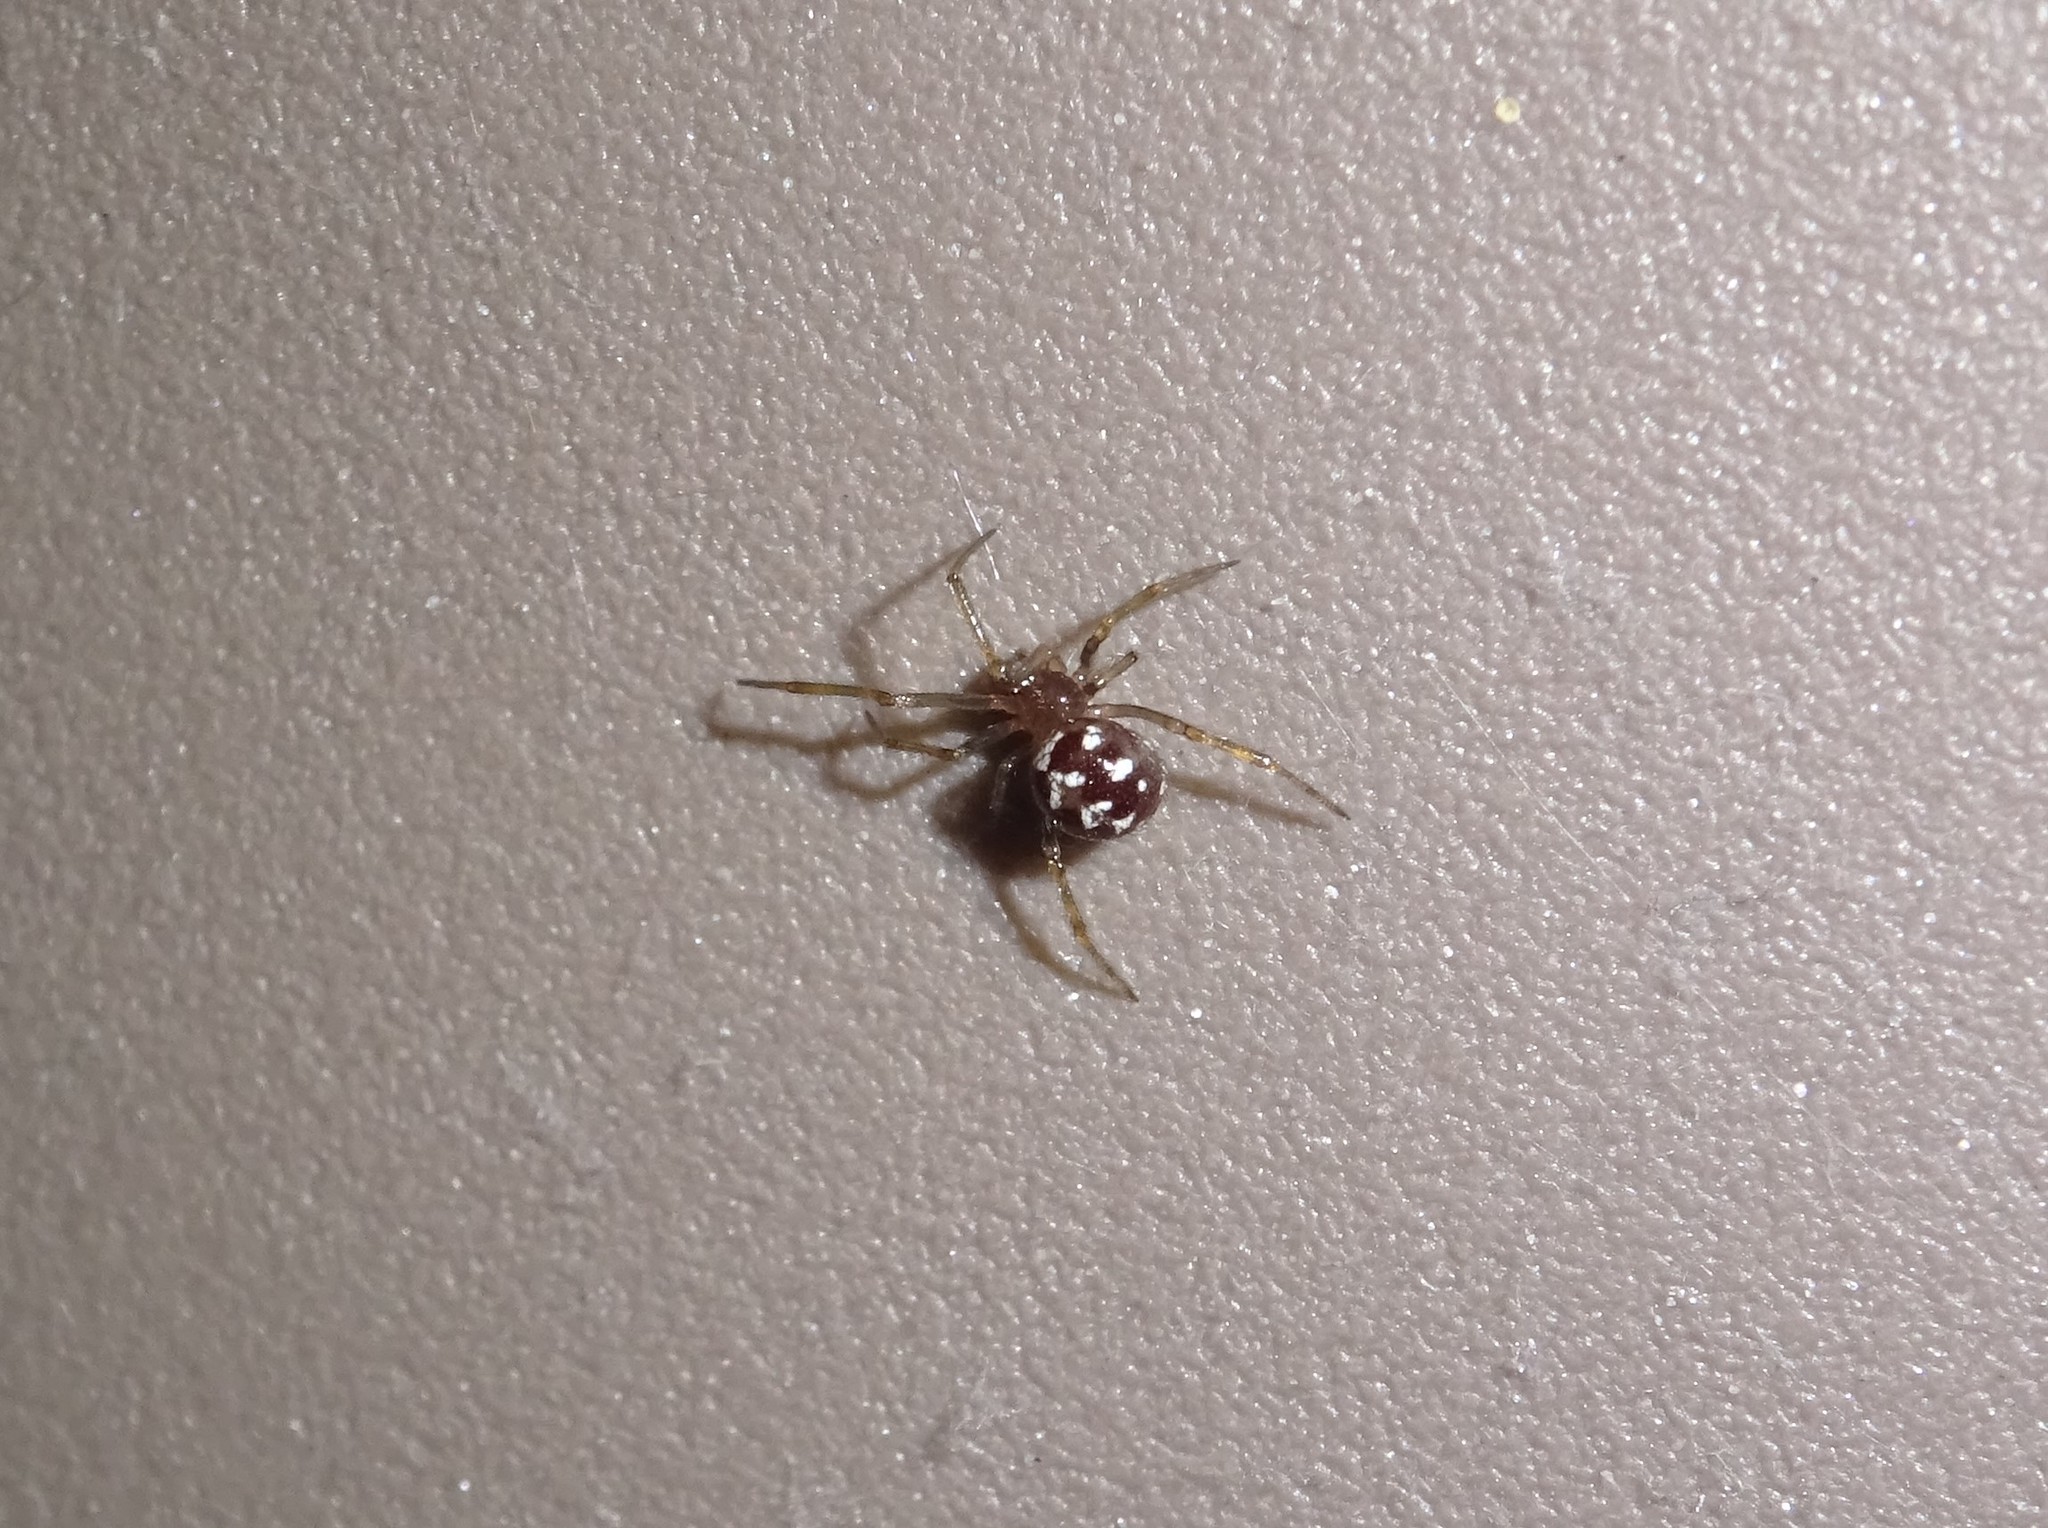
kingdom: Animalia
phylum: Arthropoda
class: Arachnida
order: Araneae
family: Theridiidae
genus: Steatoda
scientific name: Steatoda triangulosa
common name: Triangulate bud spider
